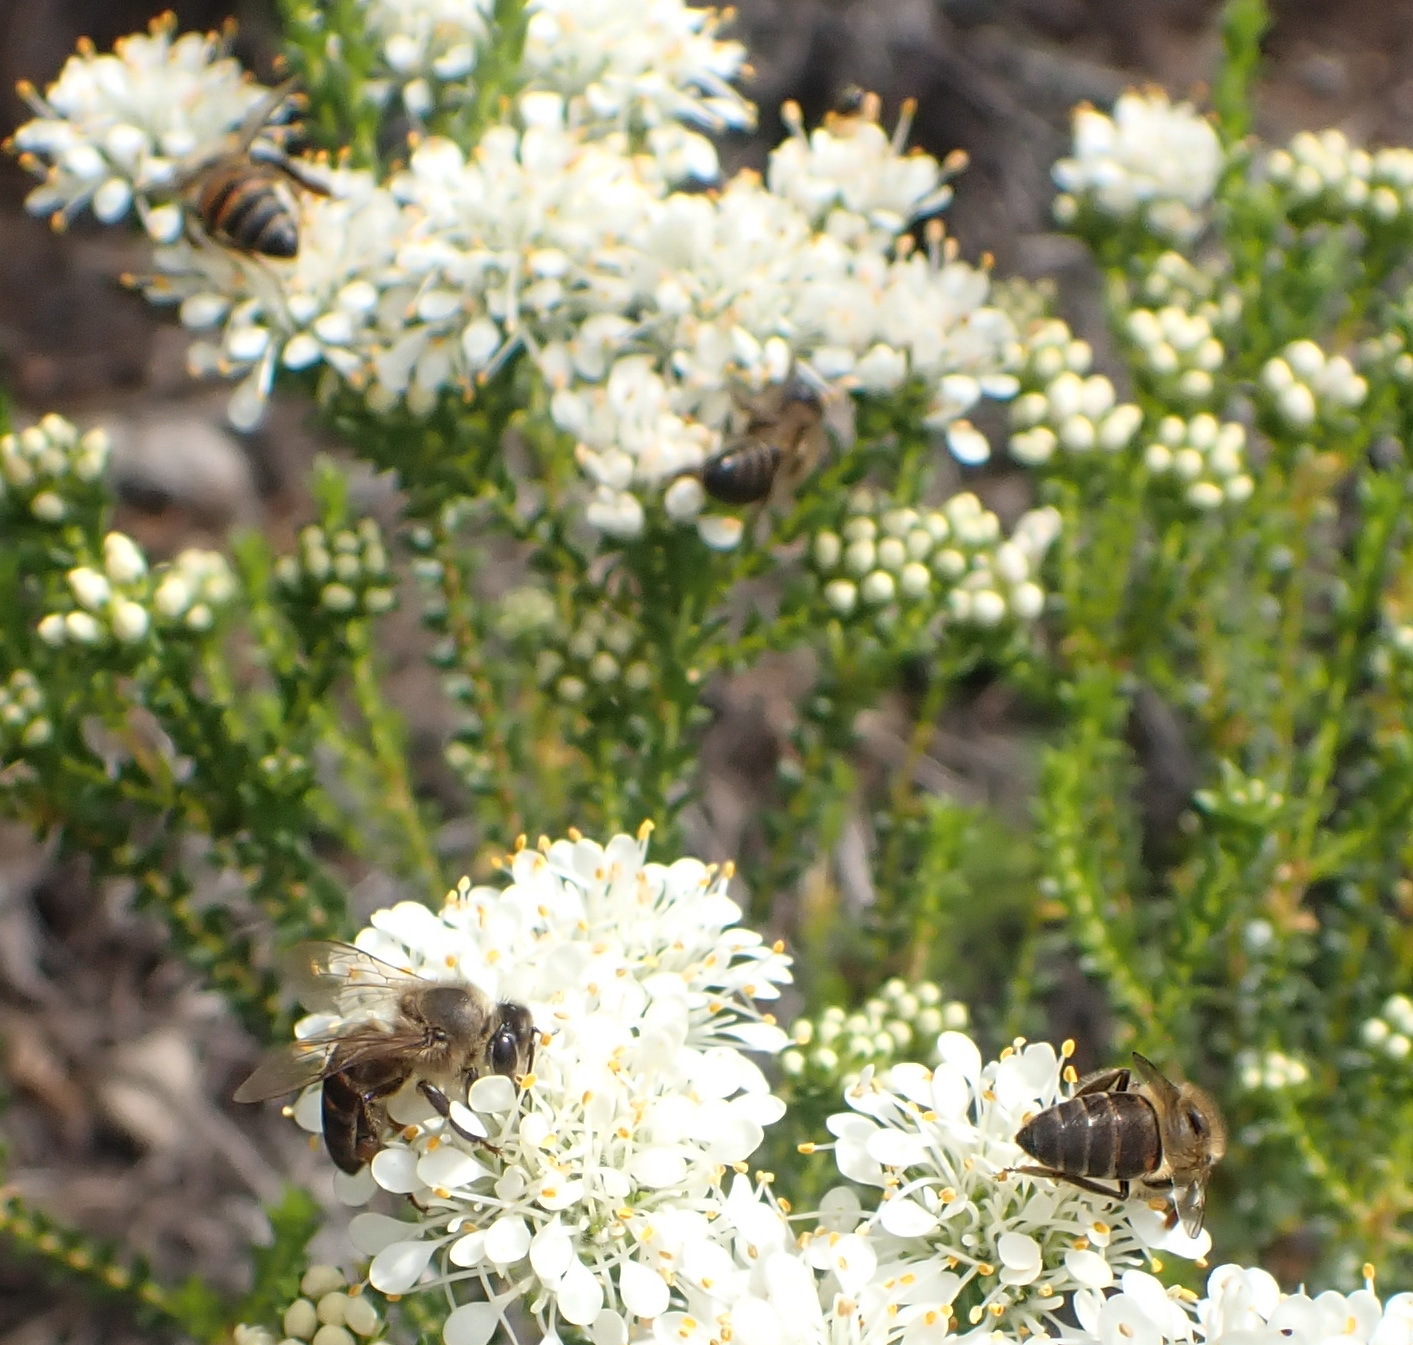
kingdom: Animalia
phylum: Arthropoda
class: Insecta
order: Hymenoptera
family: Apidae
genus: Apis
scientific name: Apis mellifera
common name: Honey bee
